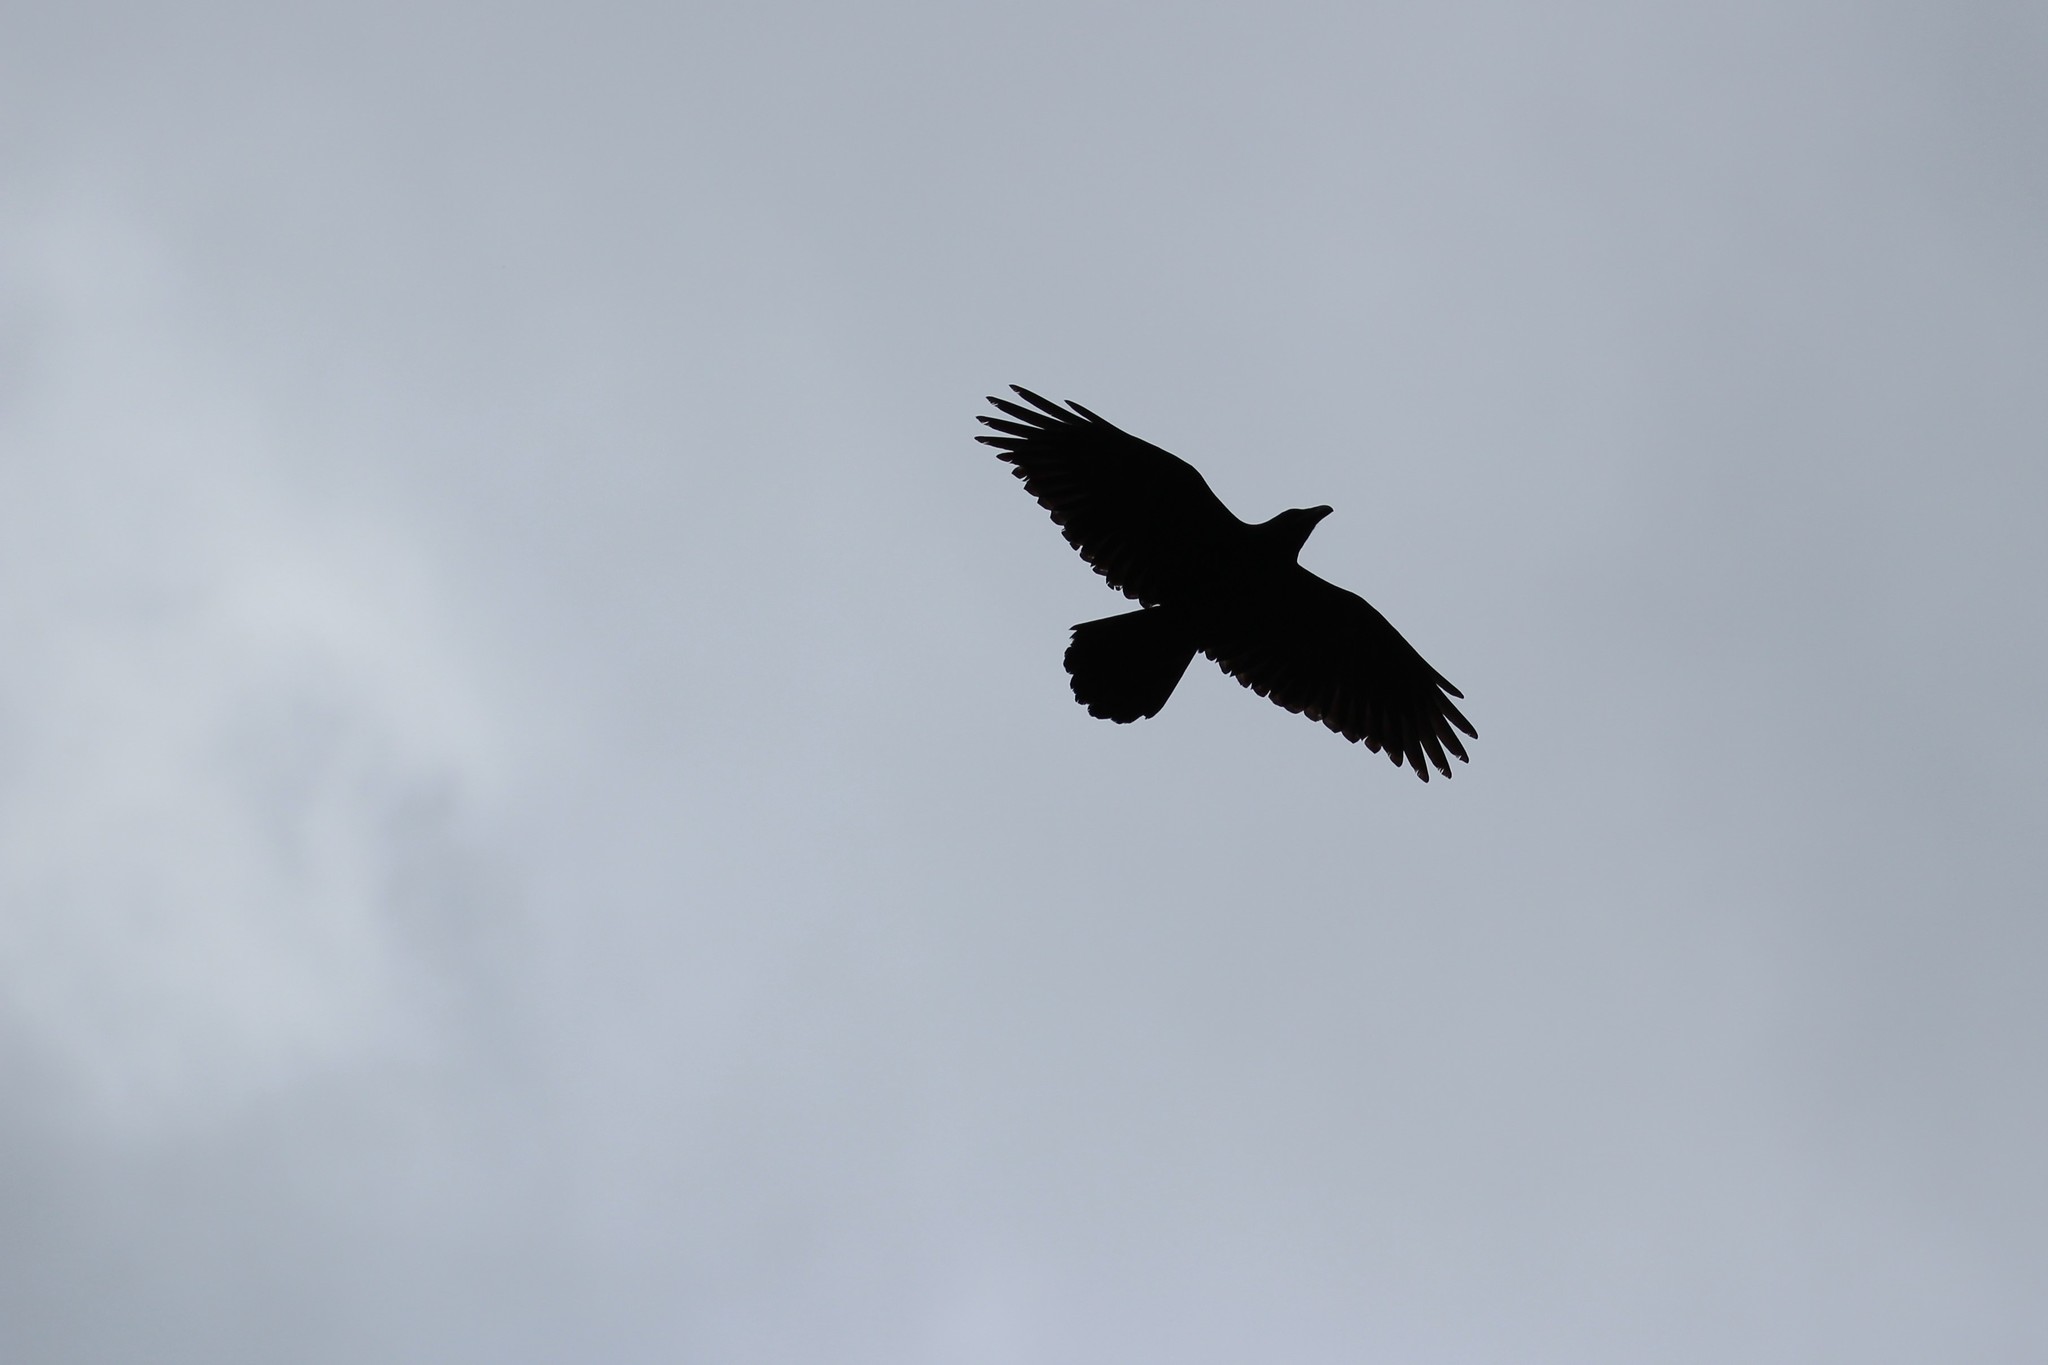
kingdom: Animalia
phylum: Chordata
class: Aves
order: Passeriformes
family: Corvidae
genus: Corvus
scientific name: Corvus corax
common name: Common raven
